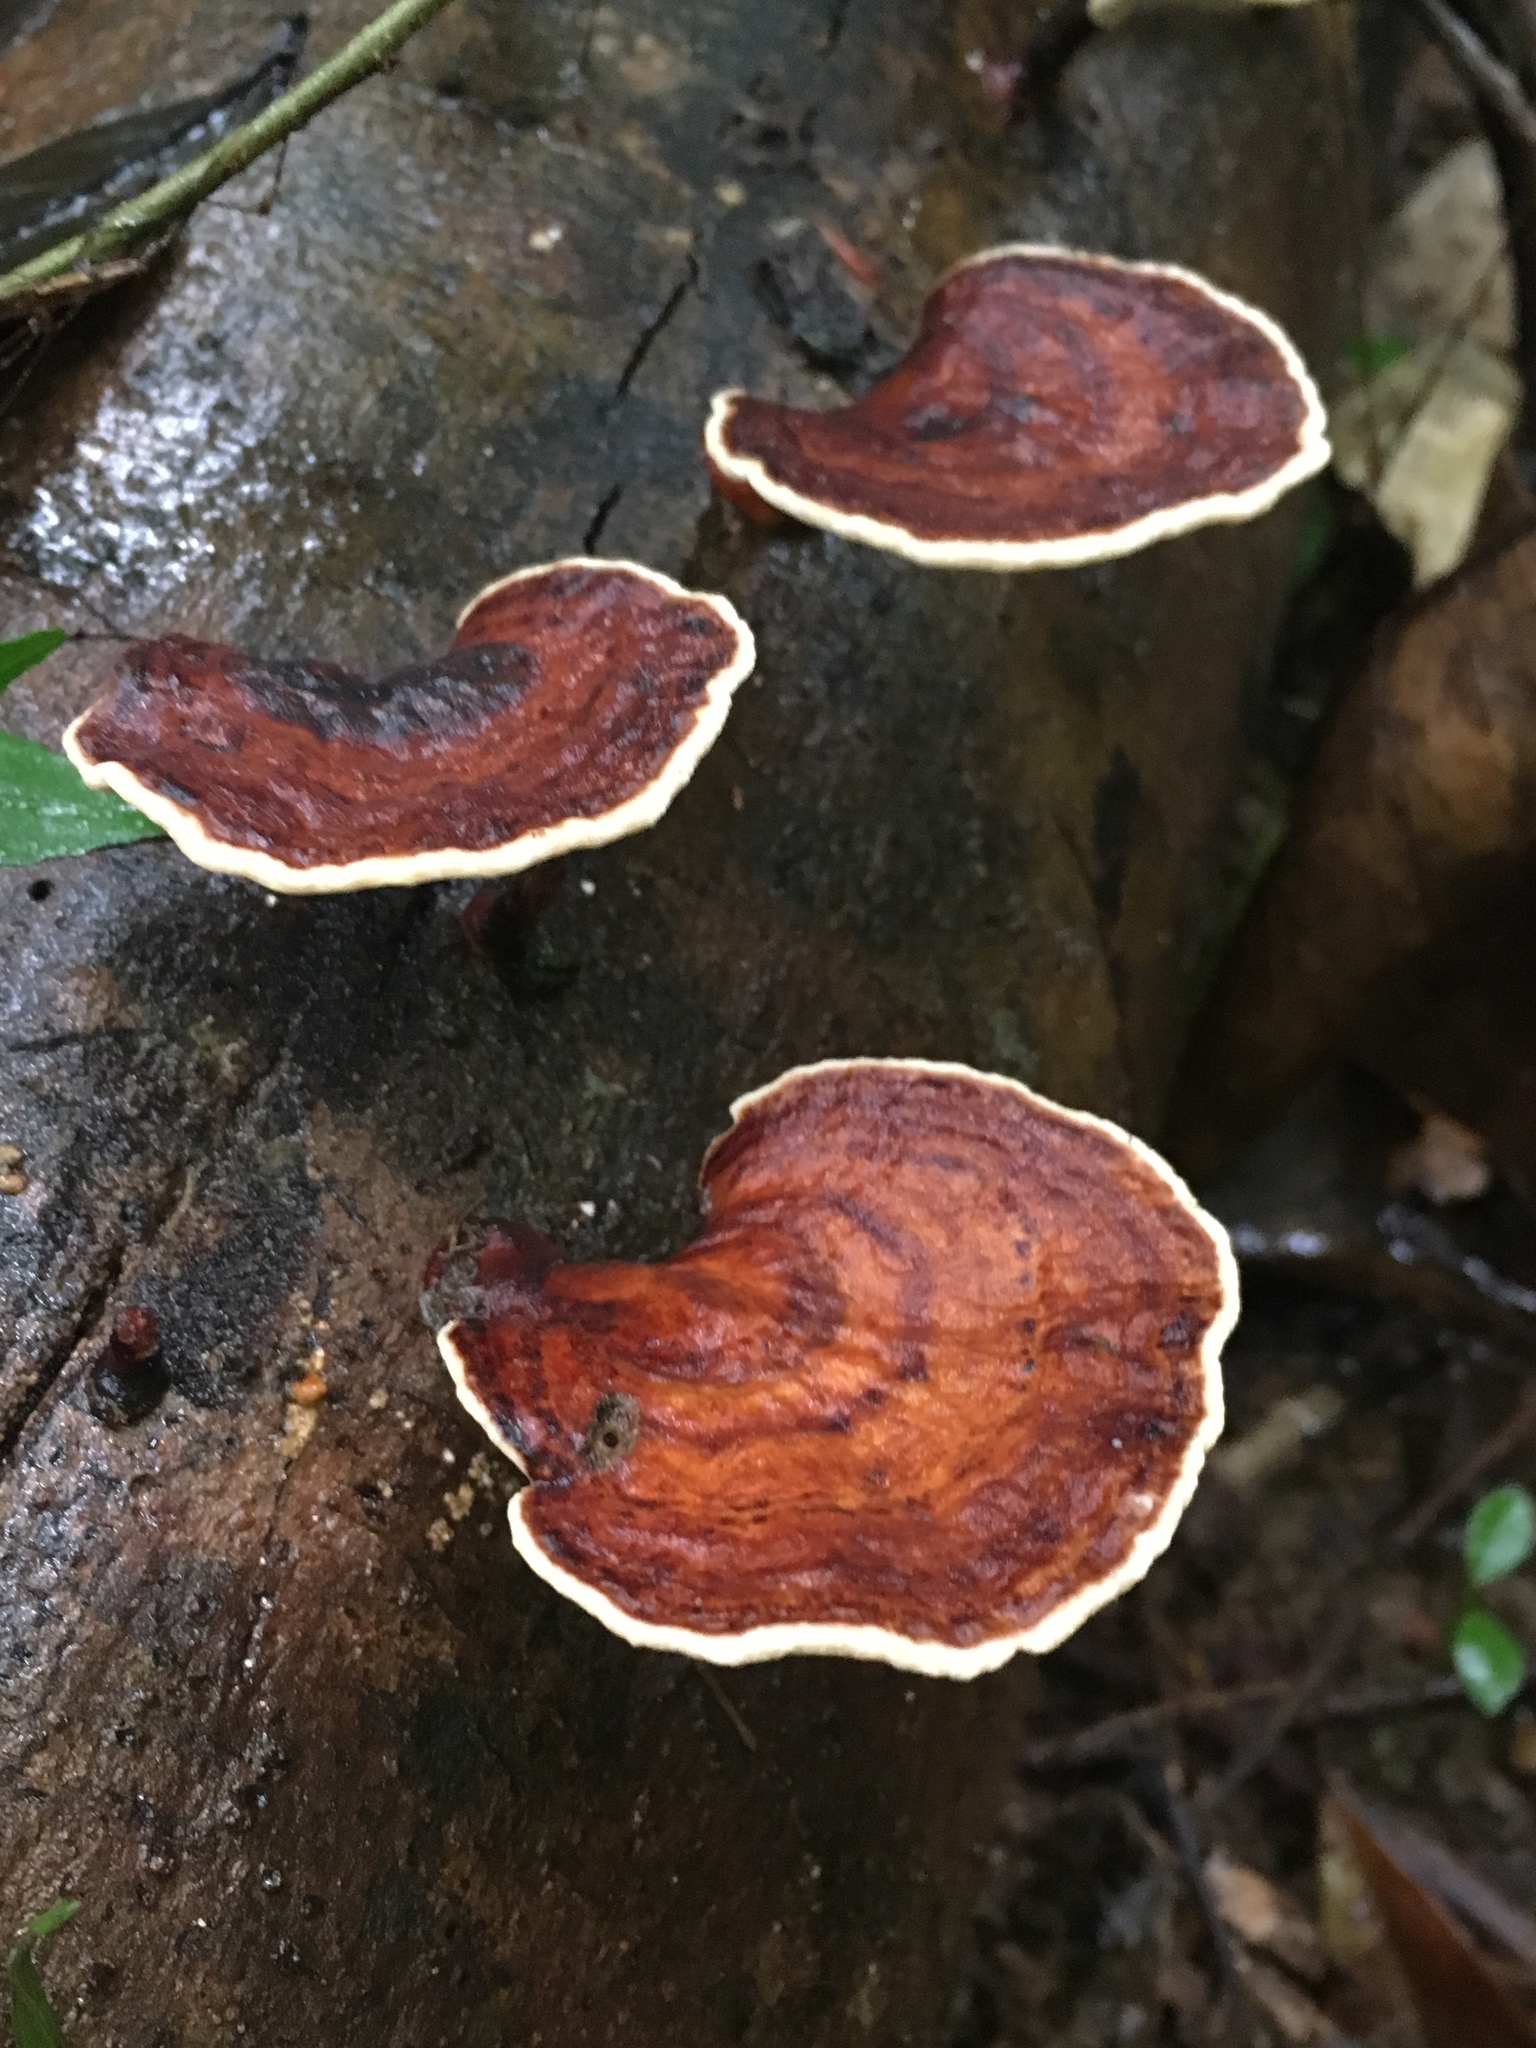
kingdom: Fungi
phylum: Basidiomycota
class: Agaricomycetes
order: Polyporales
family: Polyporaceae
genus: Microporus
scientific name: Microporus affinis
